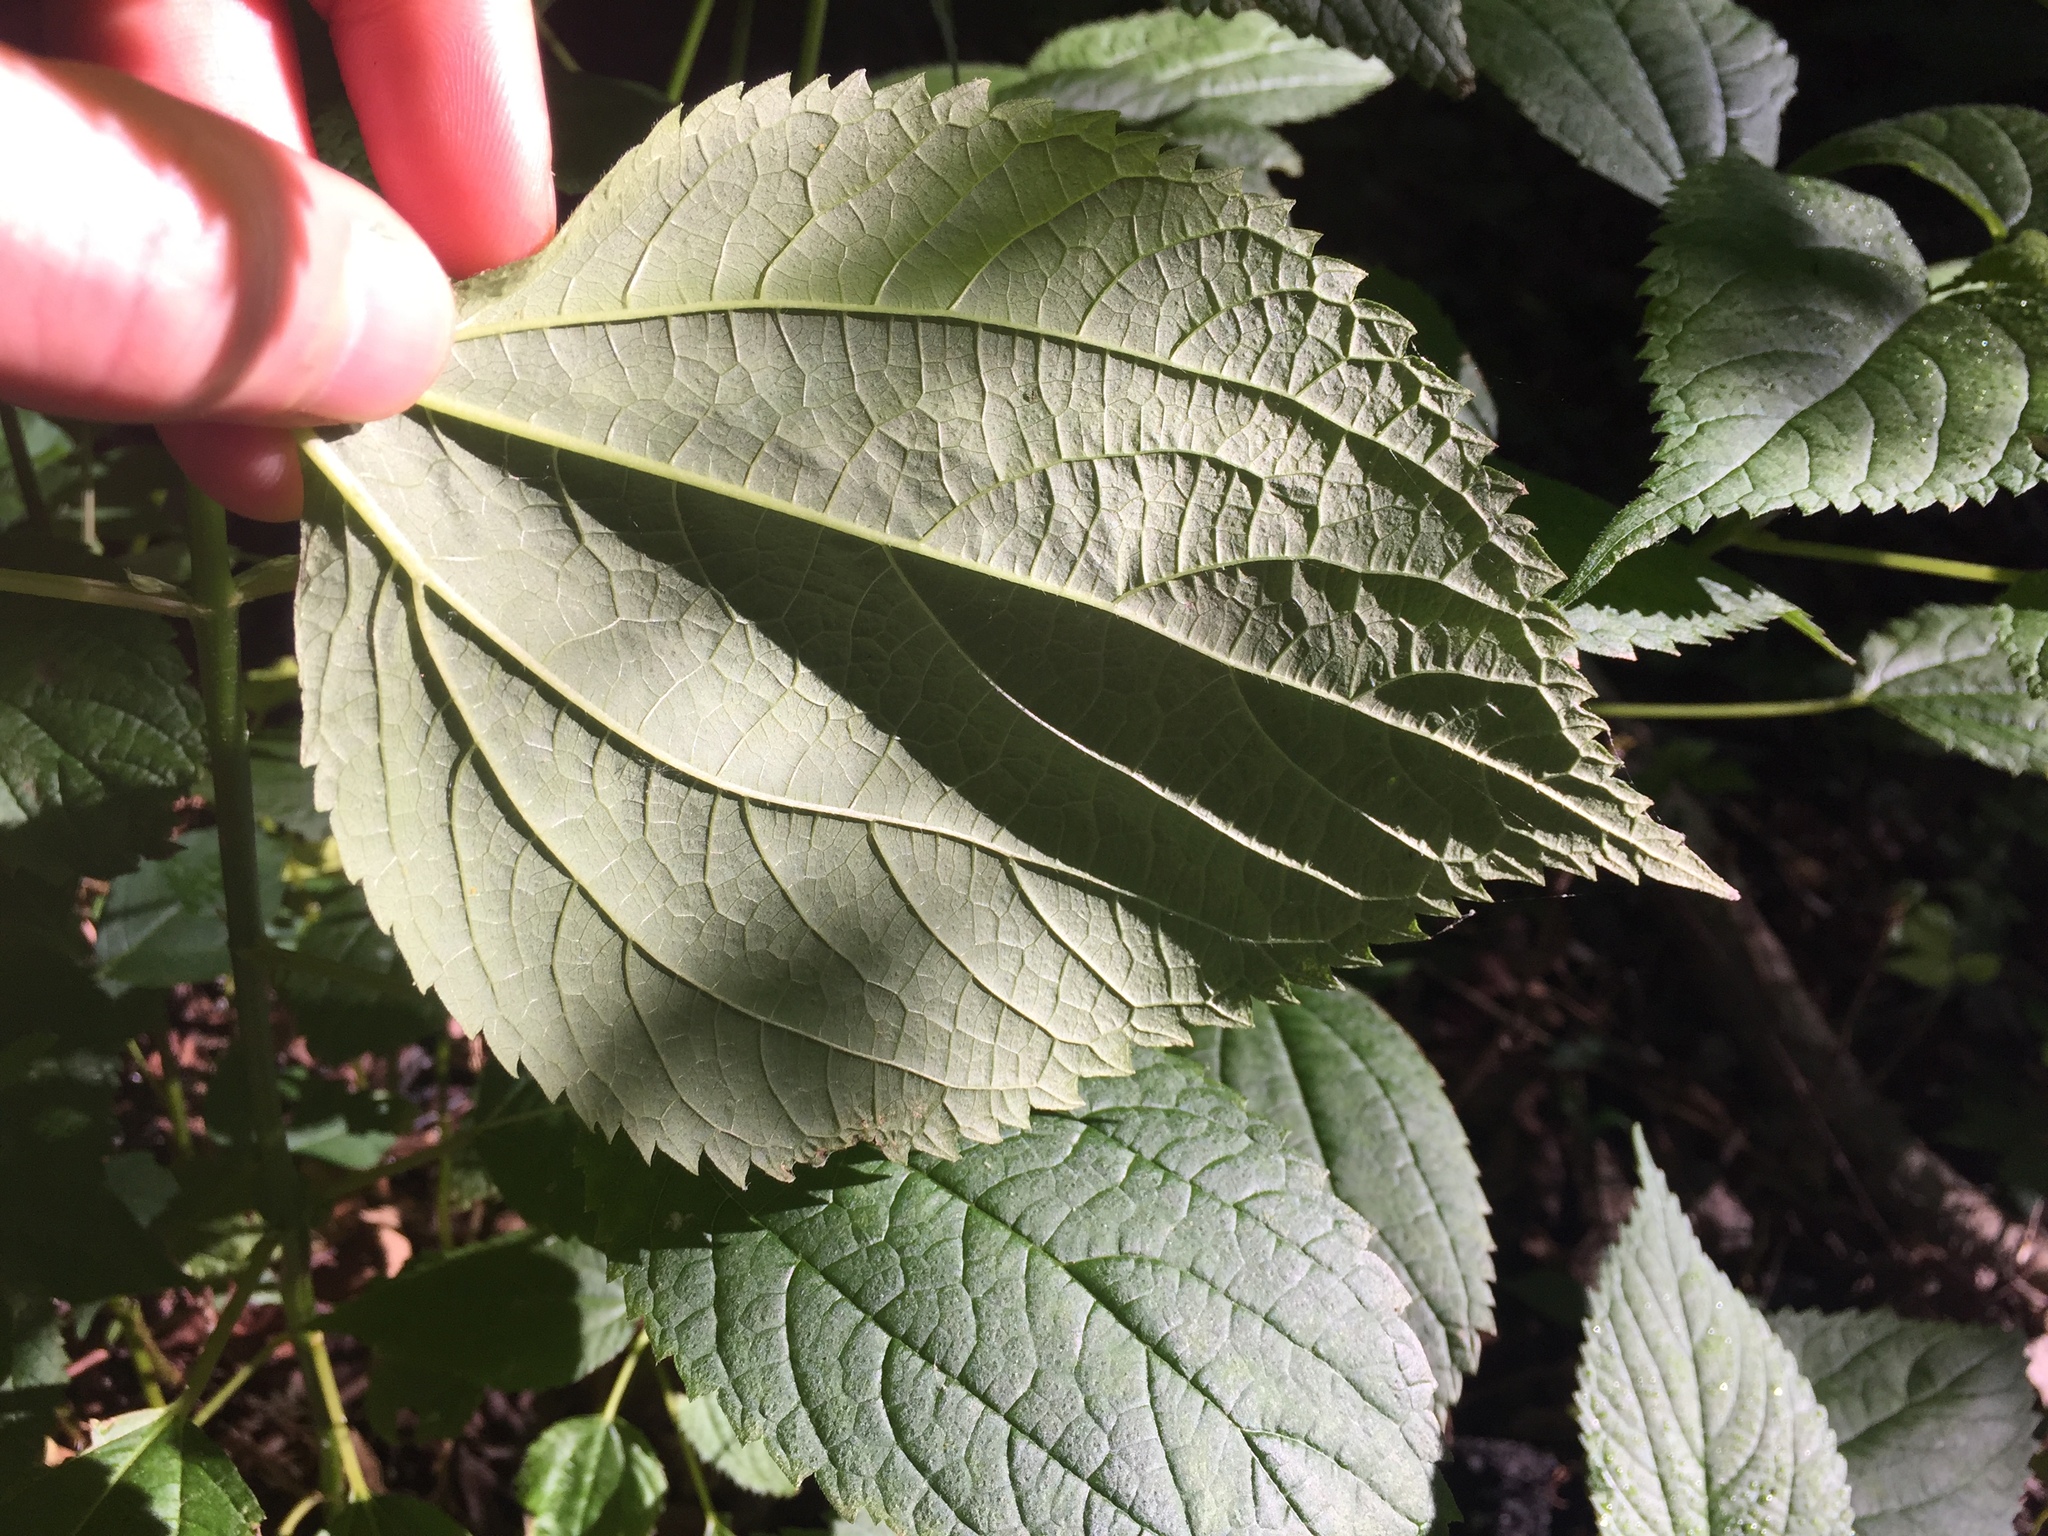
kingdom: Plantae
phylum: Tracheophyta
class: Magnoliopsida
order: Rosales
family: Urticaceae
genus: Boehmeria
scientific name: Boehmeria cylindrica
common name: Bog-hemp
